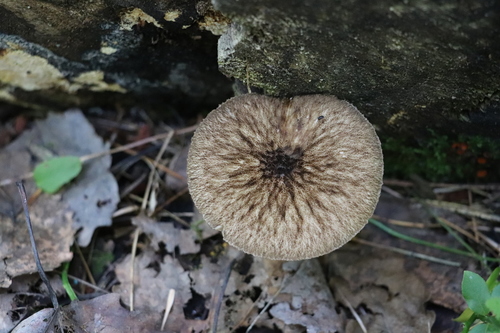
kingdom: Fungi
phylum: Basidiomycota
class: Agaricomycetes
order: Agaricales
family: Pluteaceae
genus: Pluteus
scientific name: Pluteus umbrosus
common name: Velvet shield
